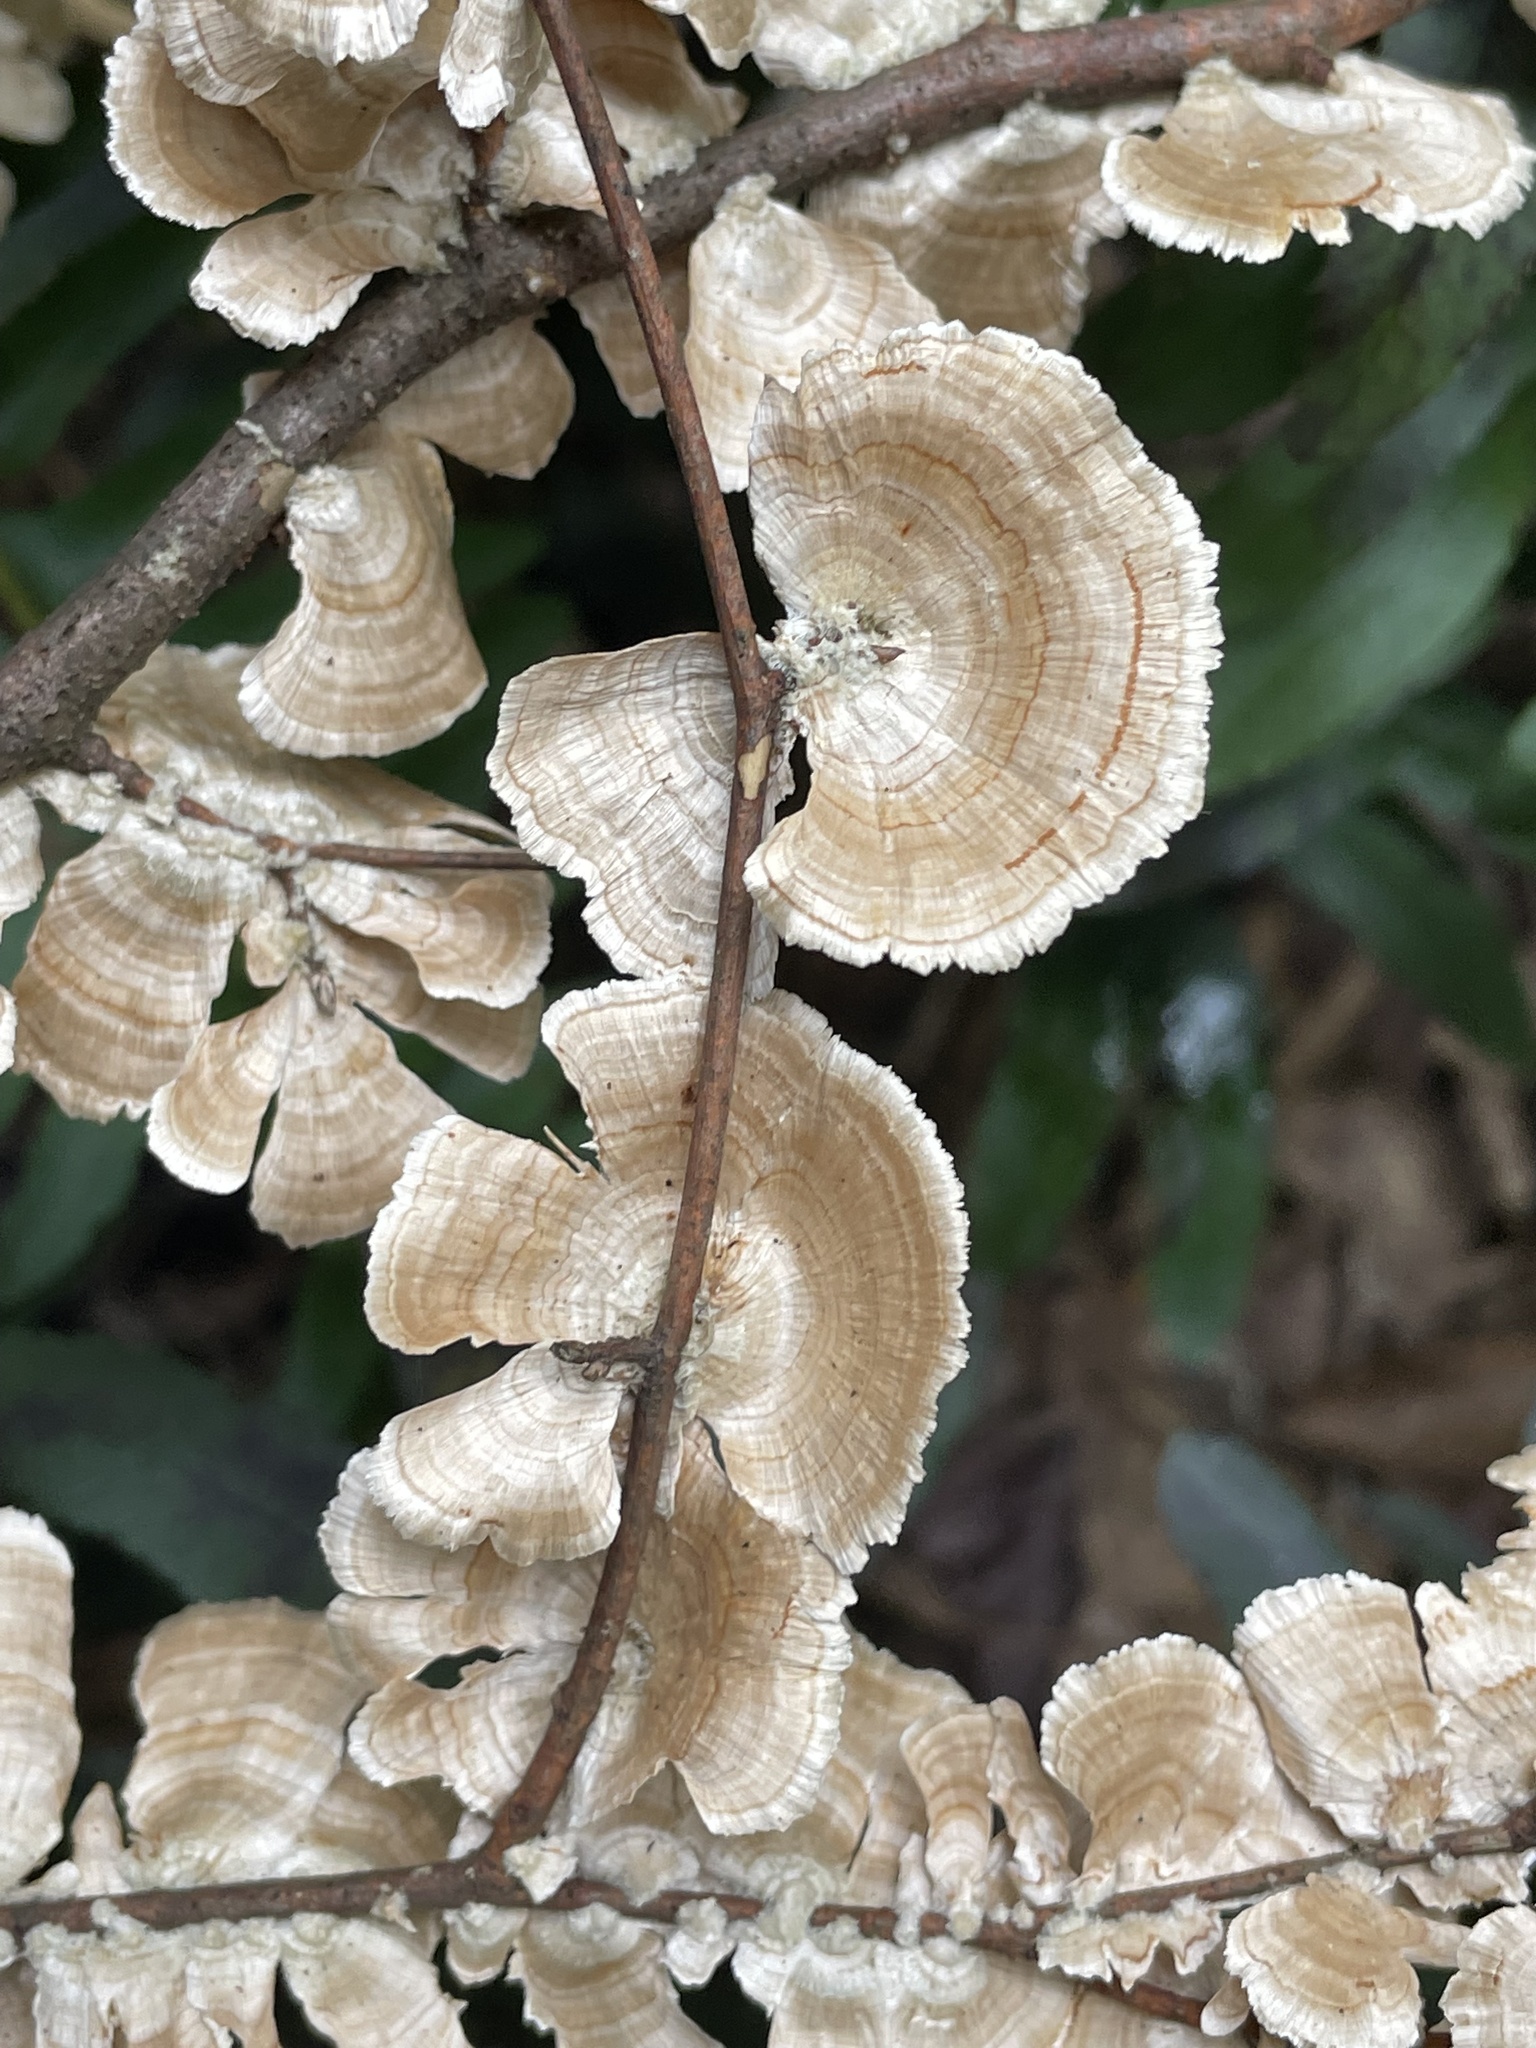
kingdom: Fungi
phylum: Basidiomycota
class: Agaricomycetes
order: Russulales
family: Stereaceae
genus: Stereum
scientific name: Stereum striatum
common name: Silky parchment
